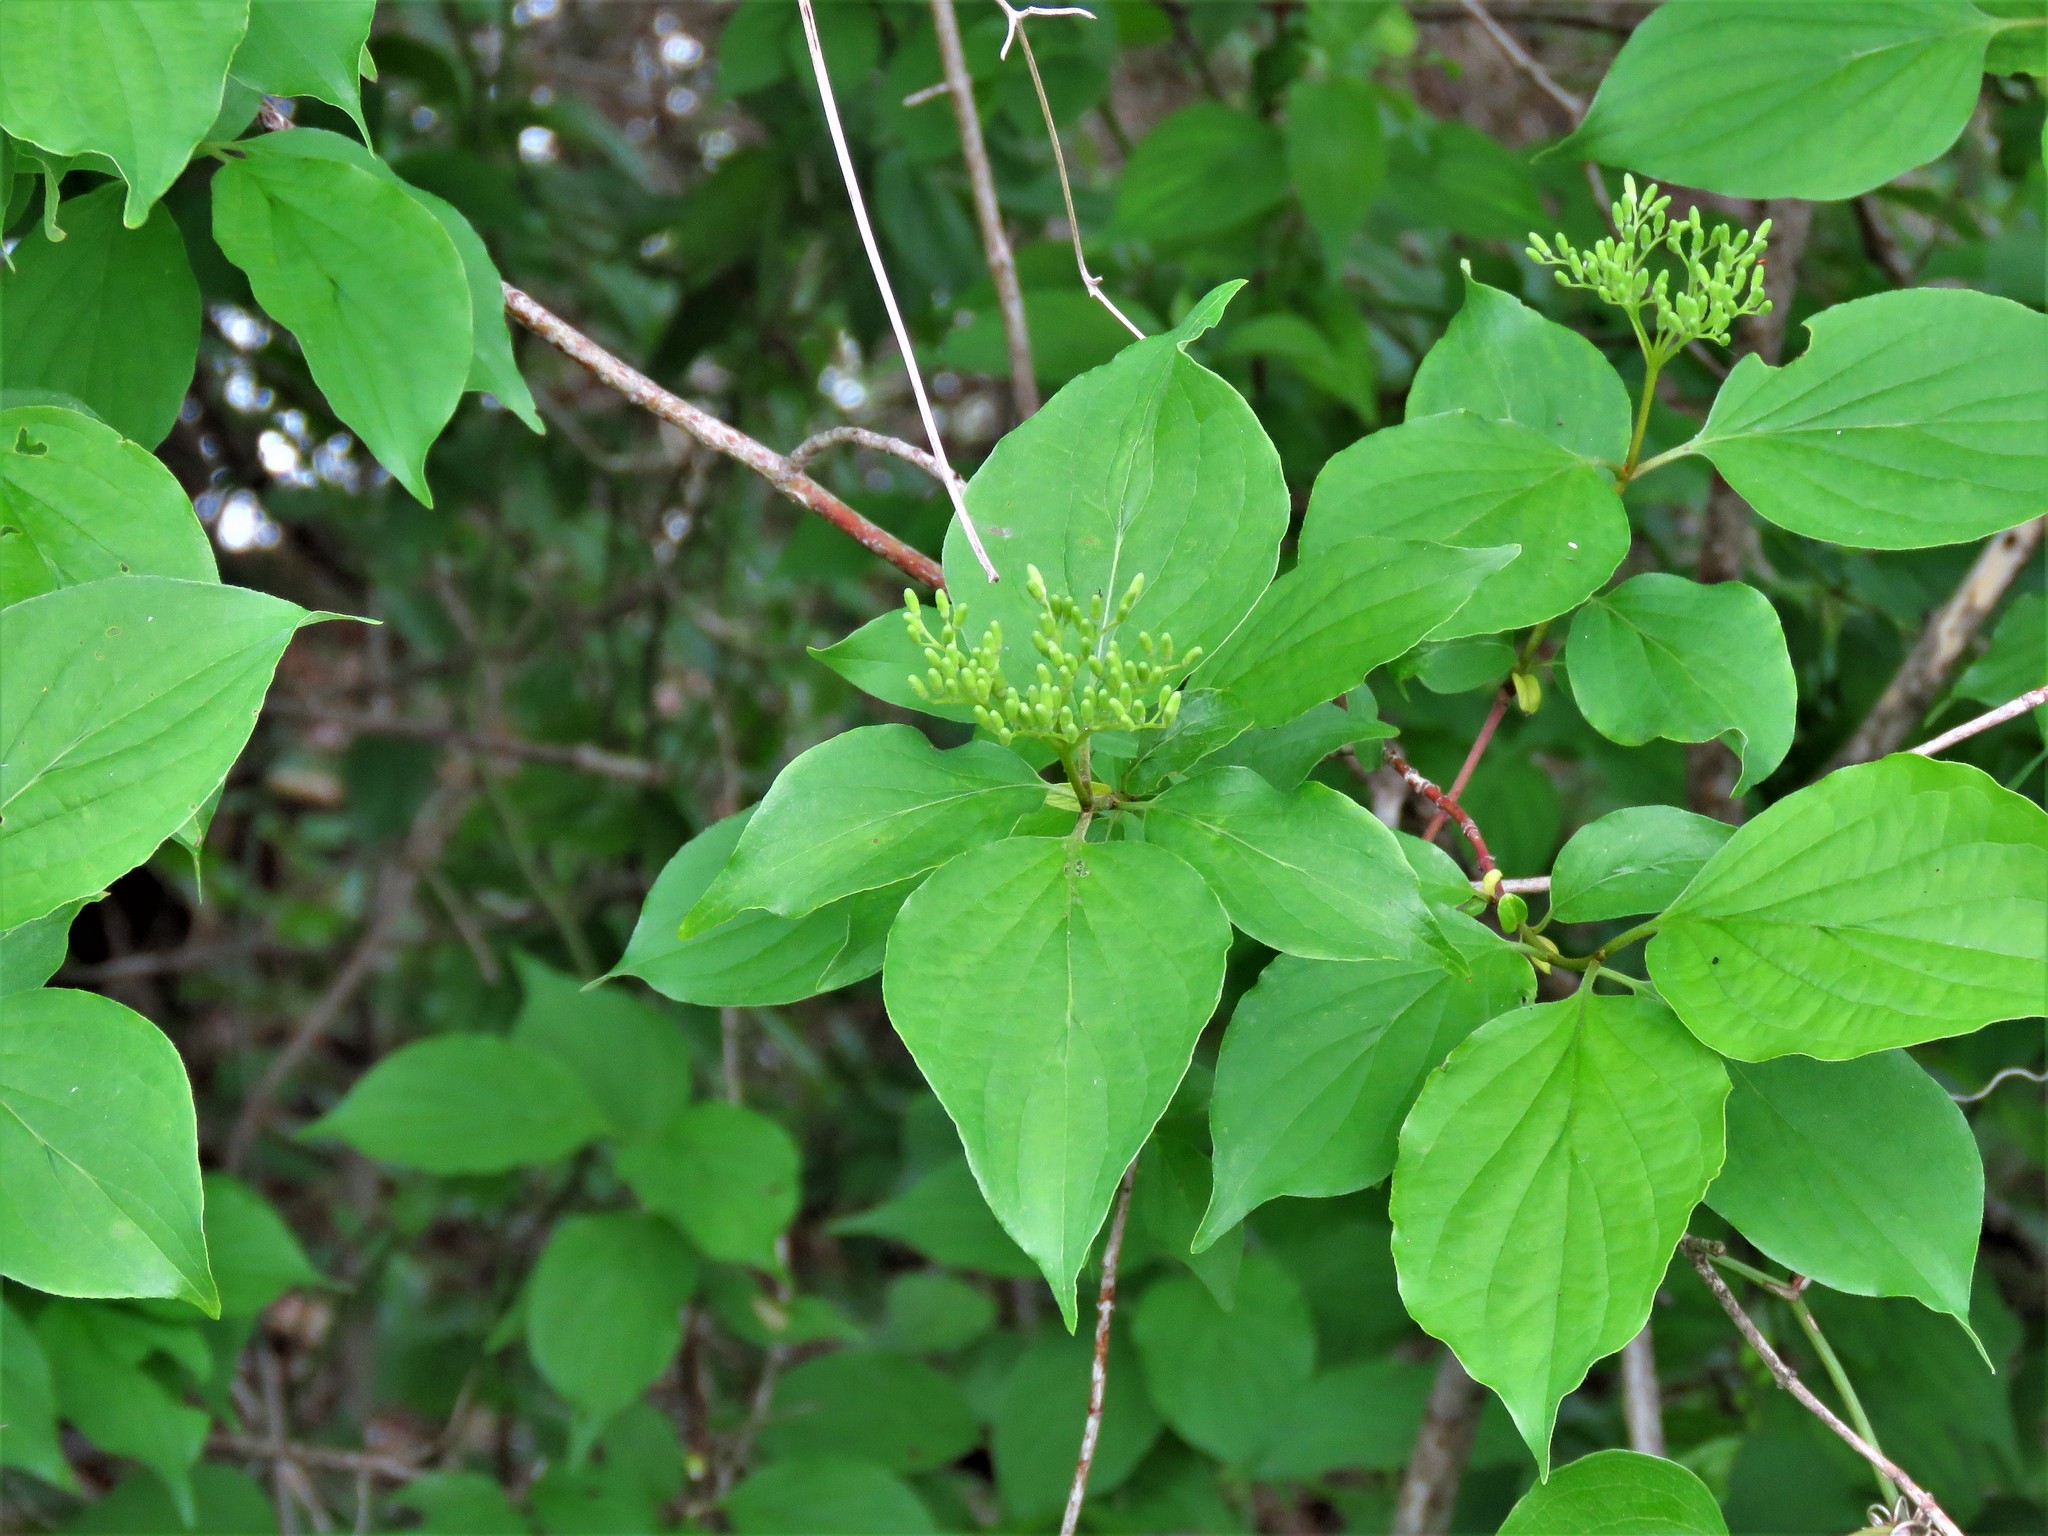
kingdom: Plantae
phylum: Tracheophyta
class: Magnoliopsida
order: Cornales
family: Cornaceae
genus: Cornus
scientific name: Cornus drummondii
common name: Rough-leaf dogwood
